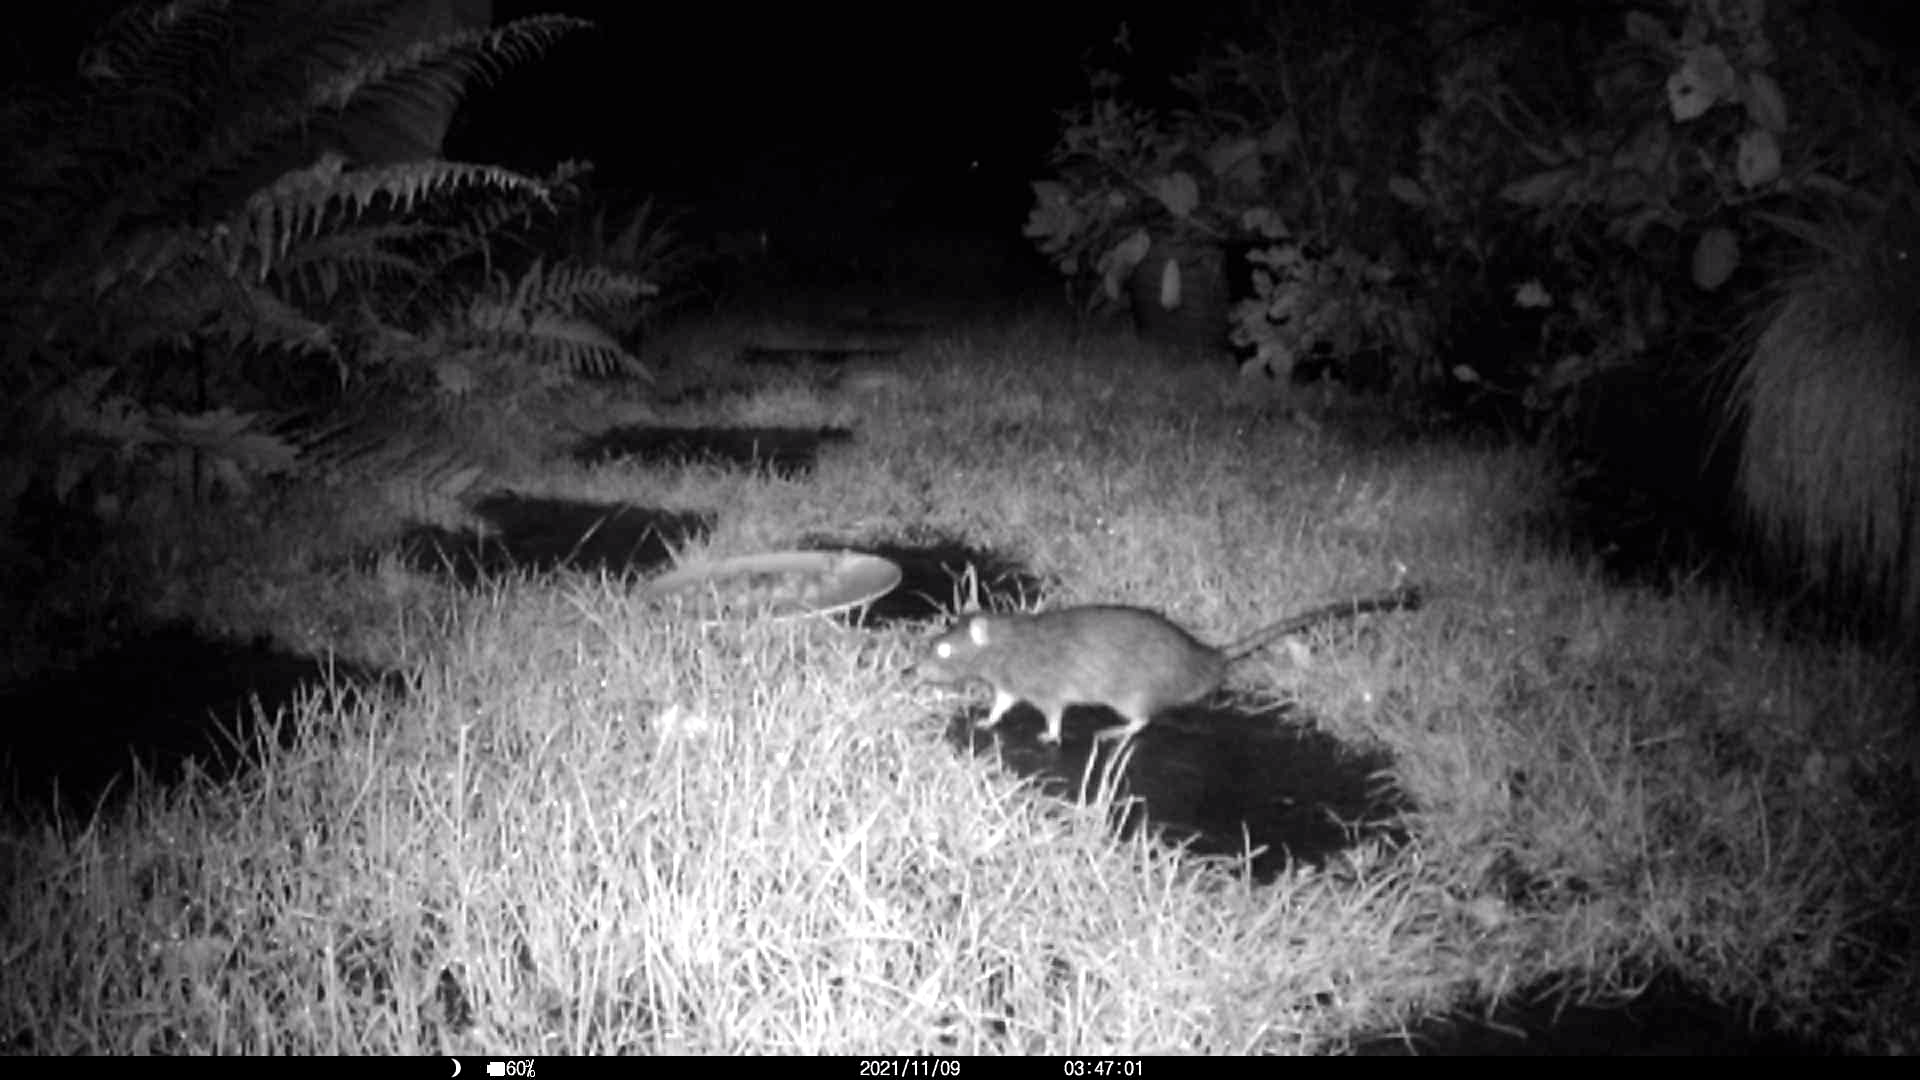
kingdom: Animalia
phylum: Chordata
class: Mammalia
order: Rodentia
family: Muridae
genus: Rattus
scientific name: Rattus norvegicus
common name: Brown rat
